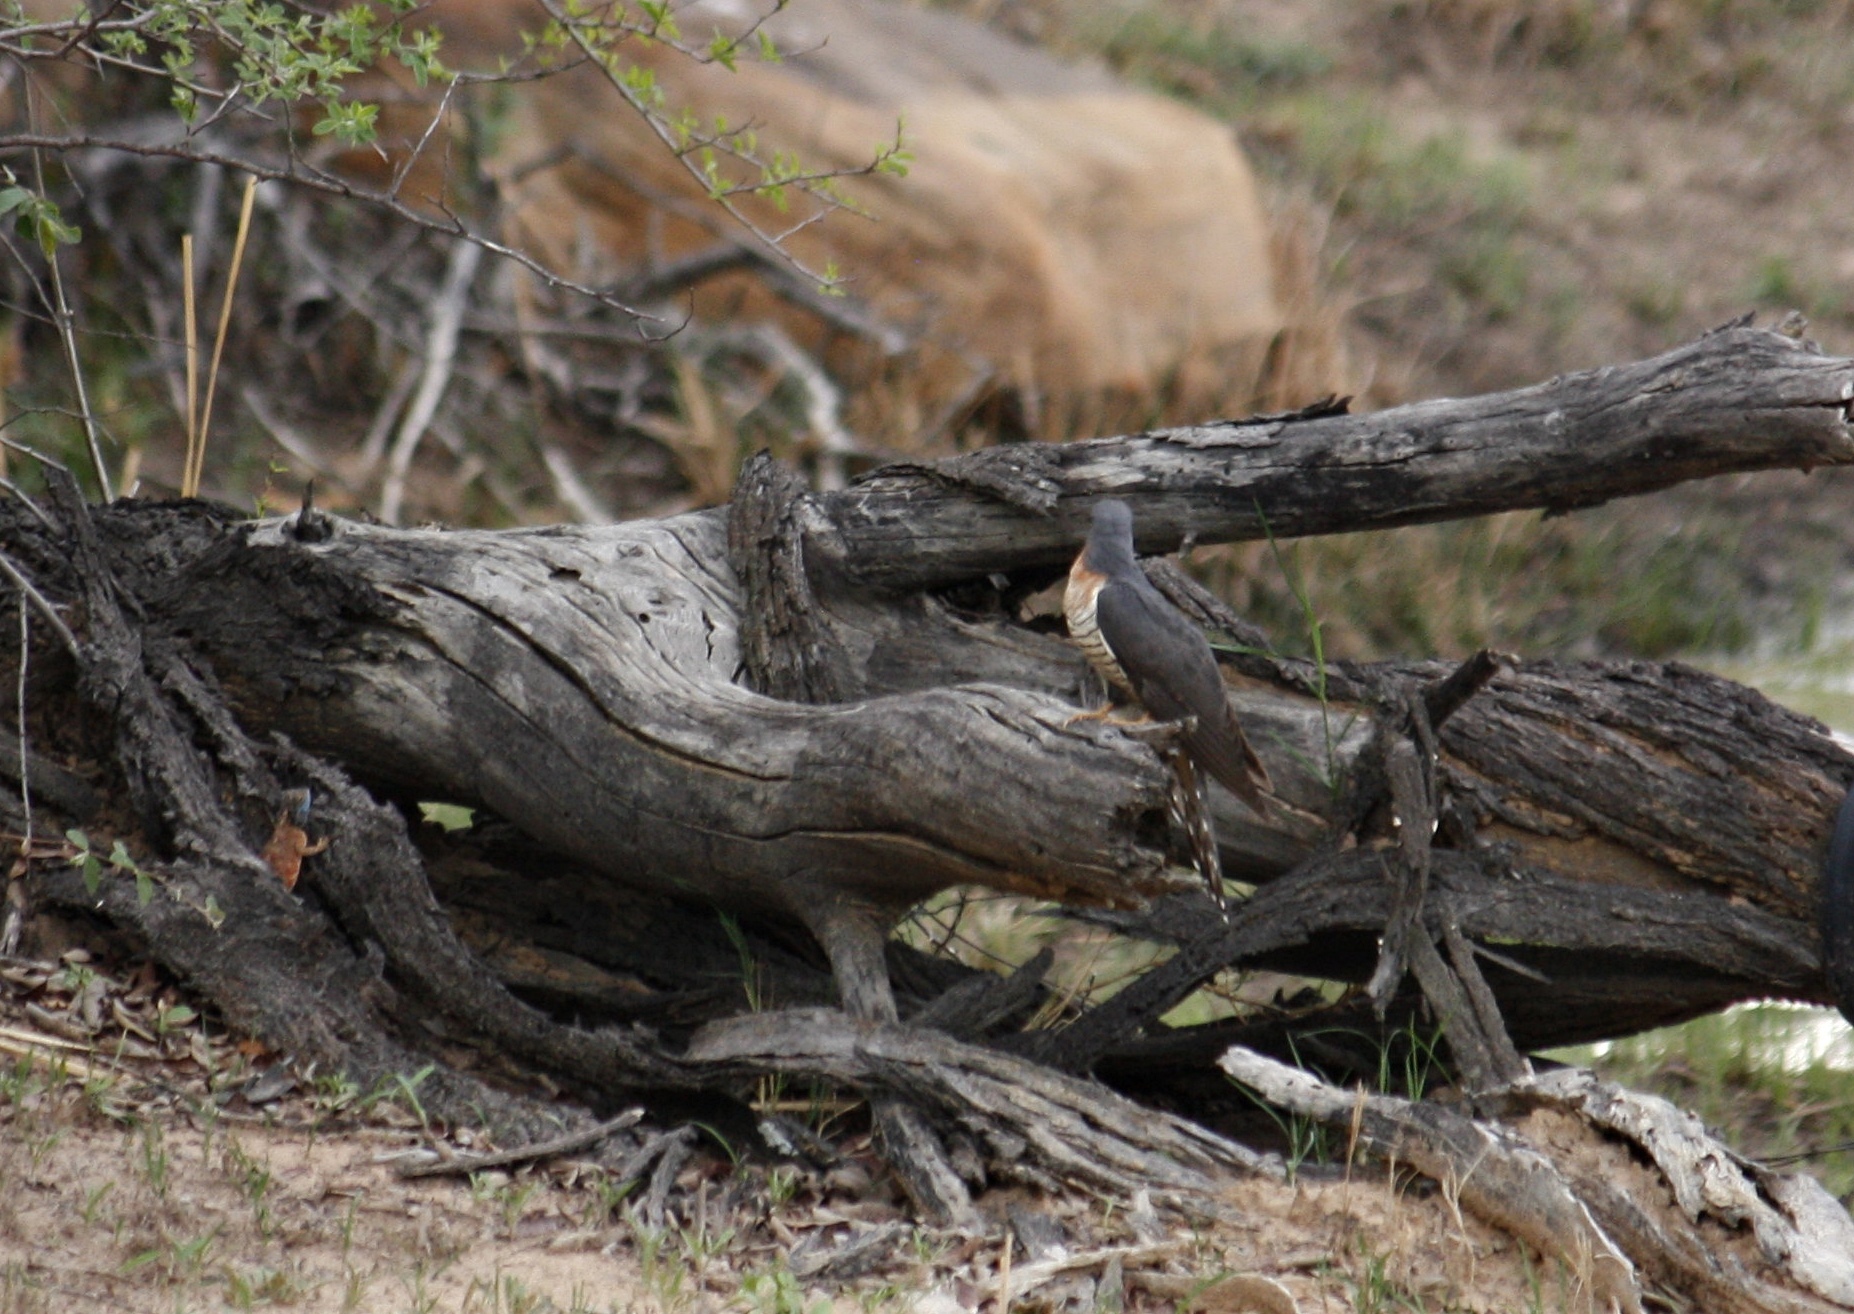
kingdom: Animalia
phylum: Chordata
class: Aves
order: Cuculiformes
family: Cuculidae
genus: Cuculus
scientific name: Cuculus solitarius
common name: Red-chested cuckoo
